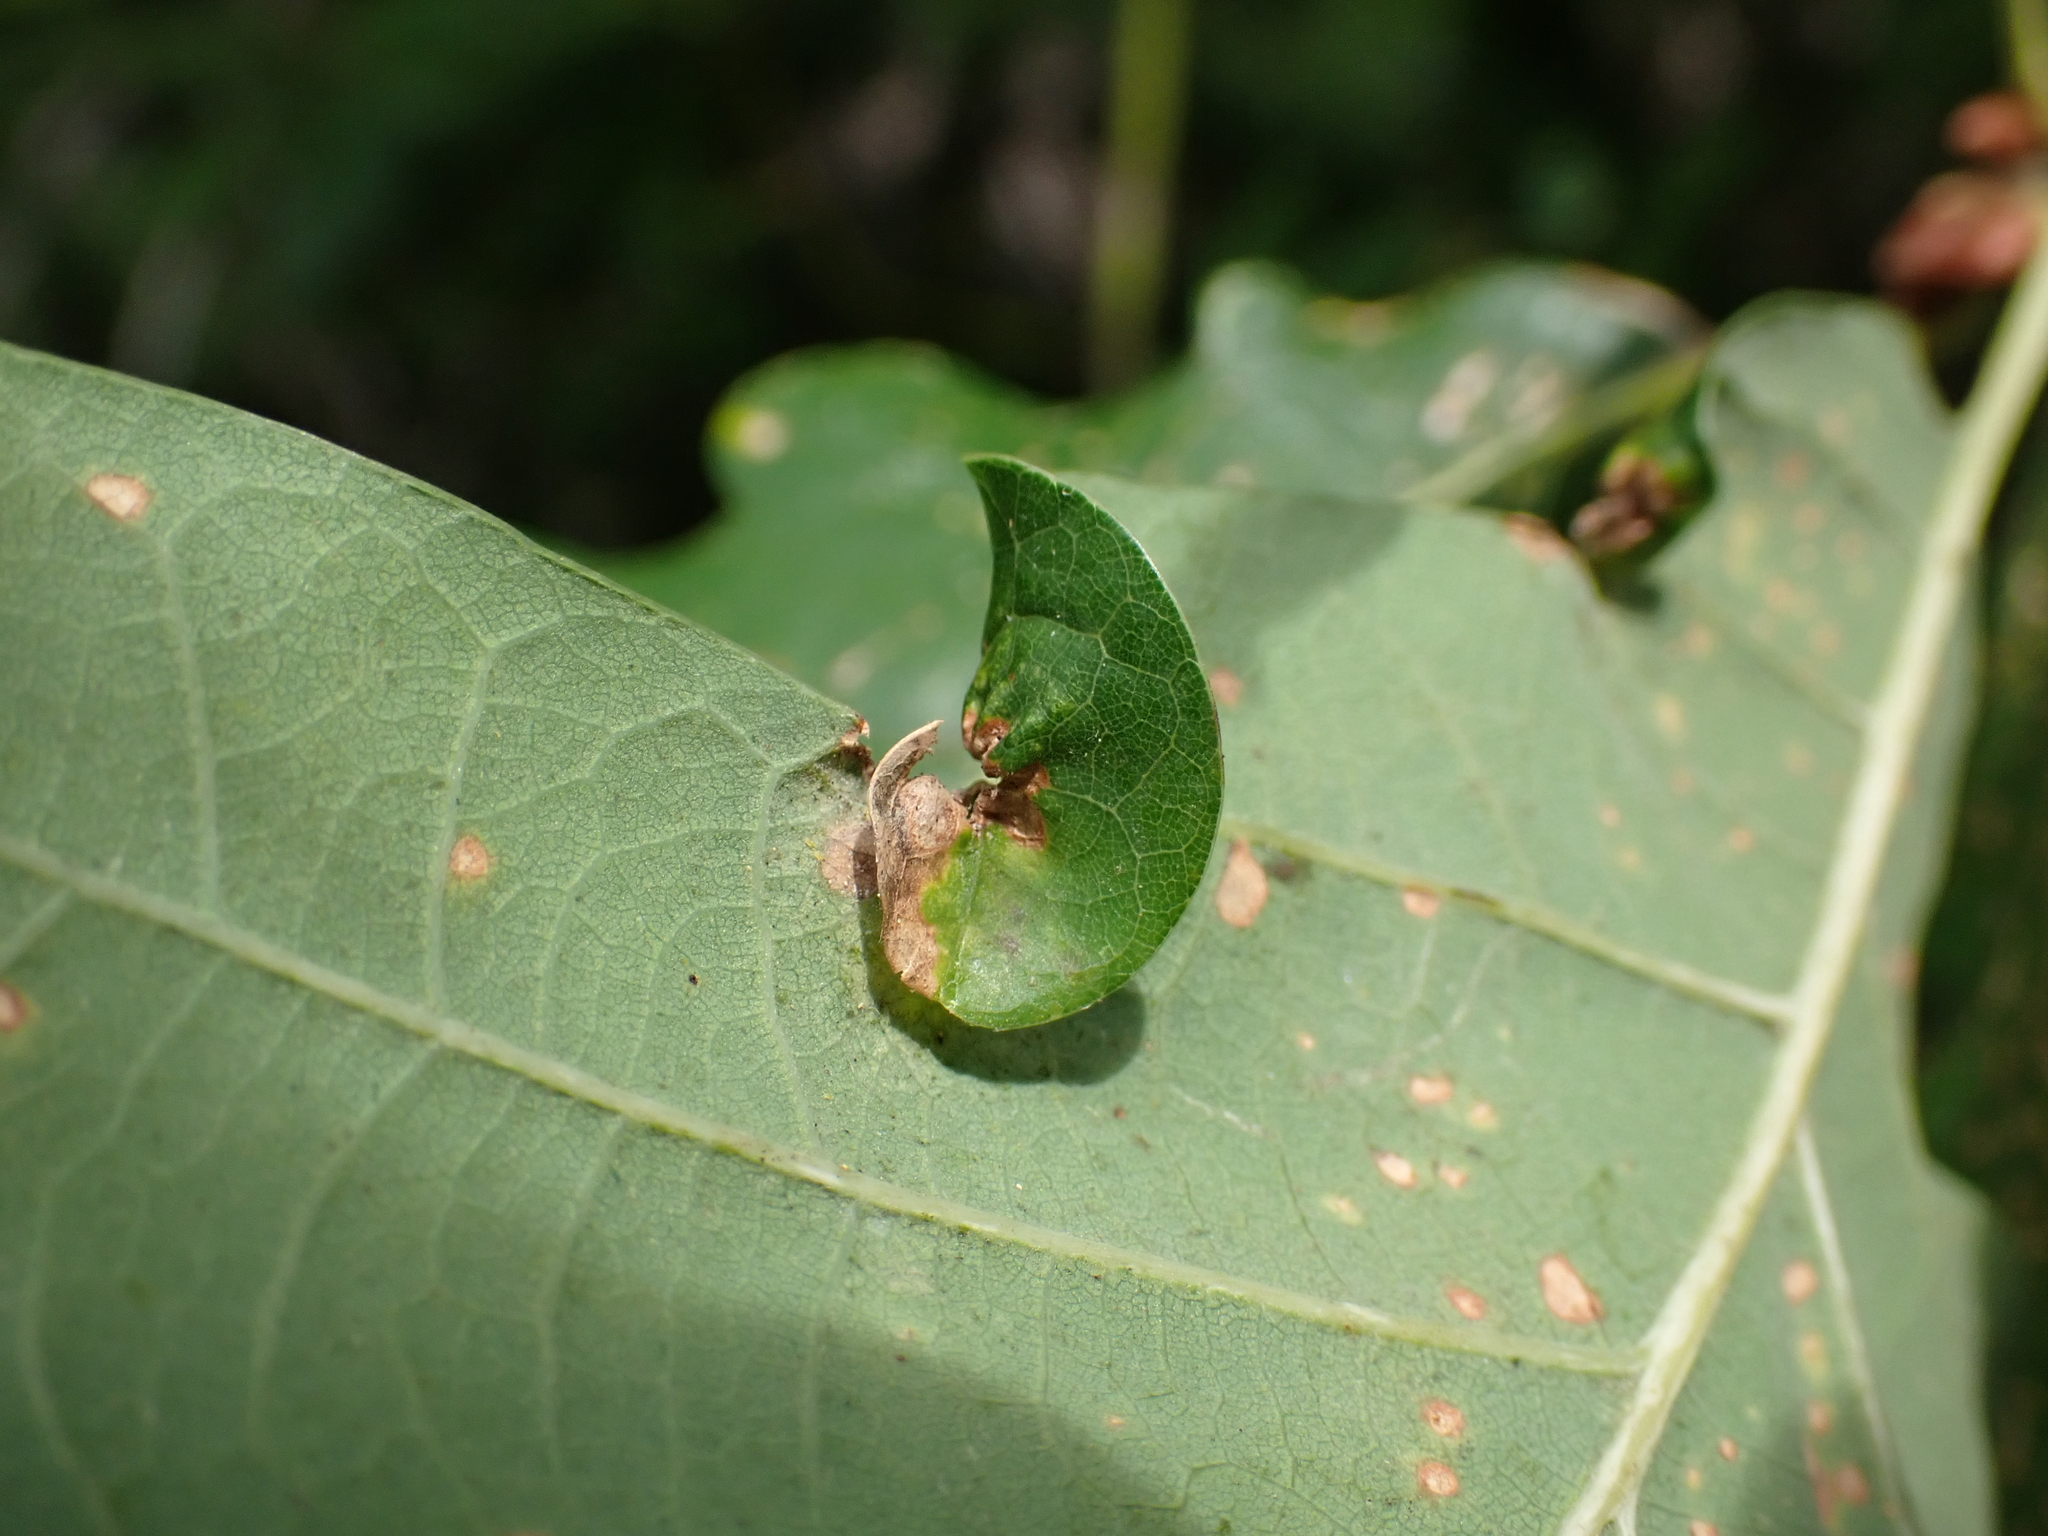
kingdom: Animalia
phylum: Arthropoda
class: Insecta
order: Hemiptera
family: Phylloxeridae
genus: Phylloxera
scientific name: Phylloxera glabra
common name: Oakleaf phylloxera aphid
